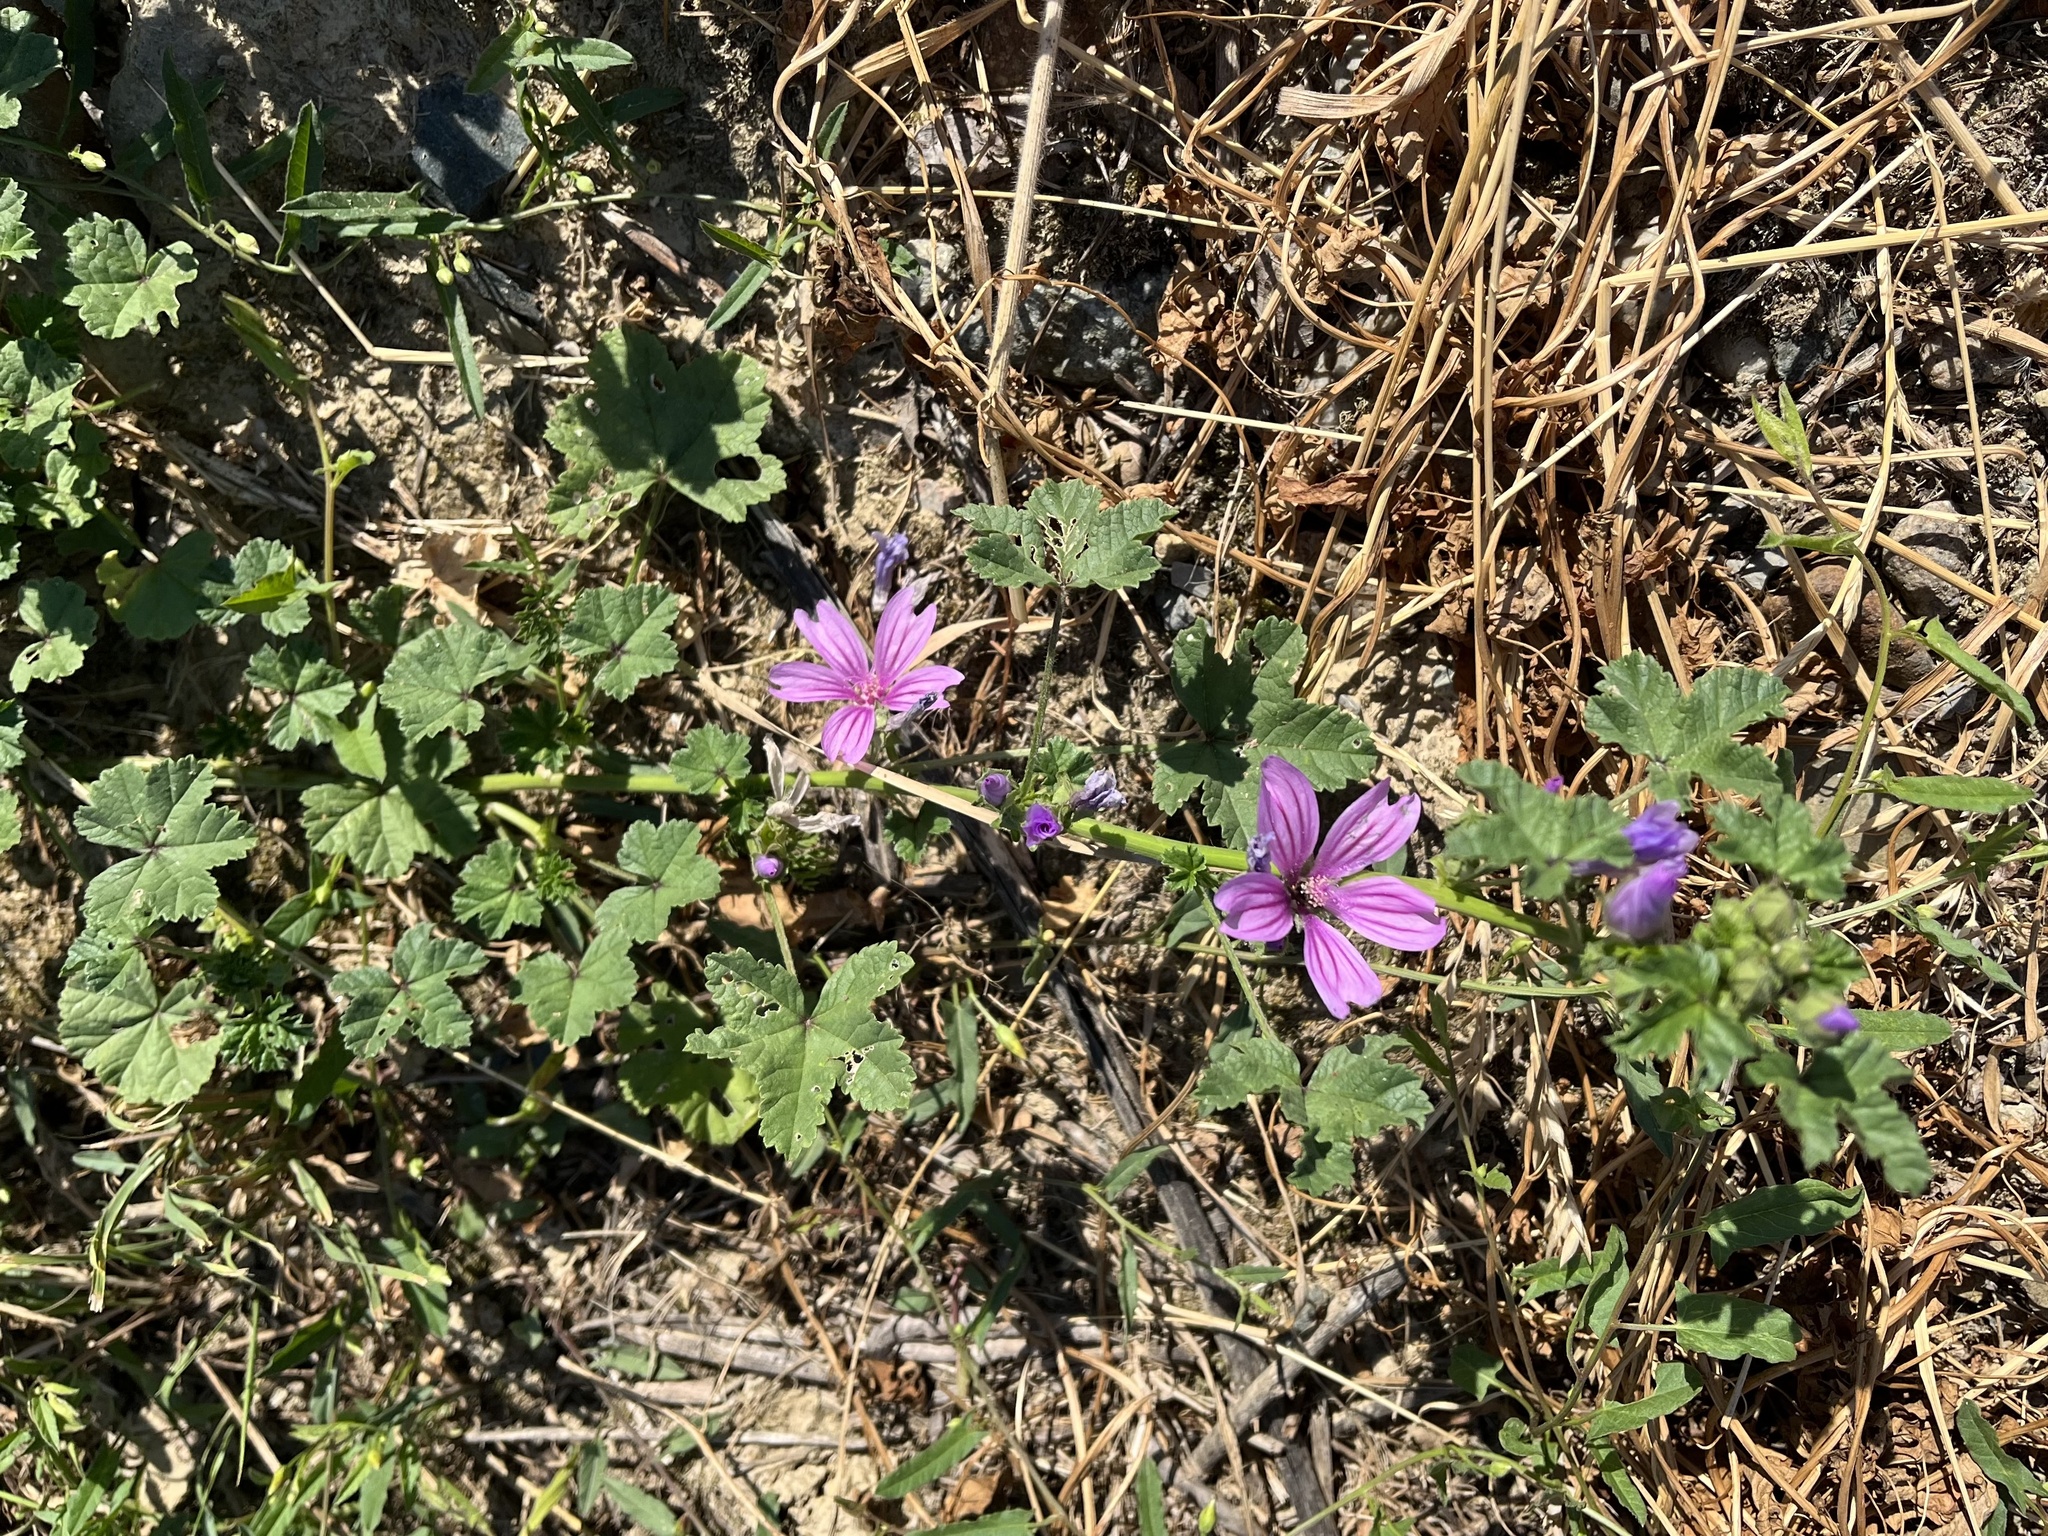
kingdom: Plantae
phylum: Tracheophyta
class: Magnoliopsida
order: Malvales
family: Malvaceae
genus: Malva
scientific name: Malva sylvestris
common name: Common mallow
